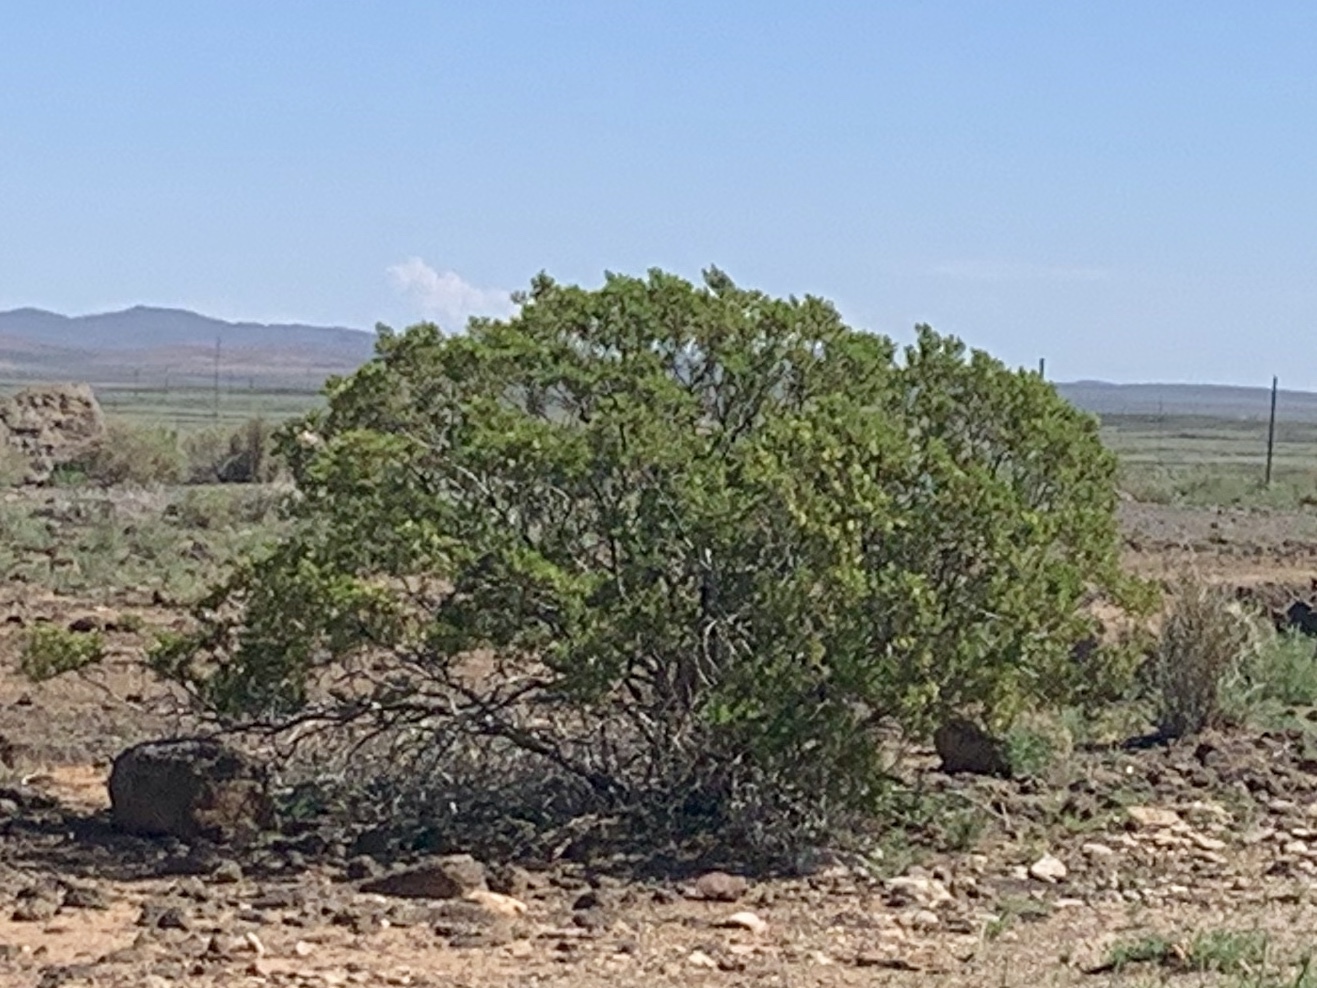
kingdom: Plantae
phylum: Tracheophyta
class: Magnoliopsida
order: Zygophyllales
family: Zygophyllaceae
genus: Larrea
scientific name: Larrea tridentata
